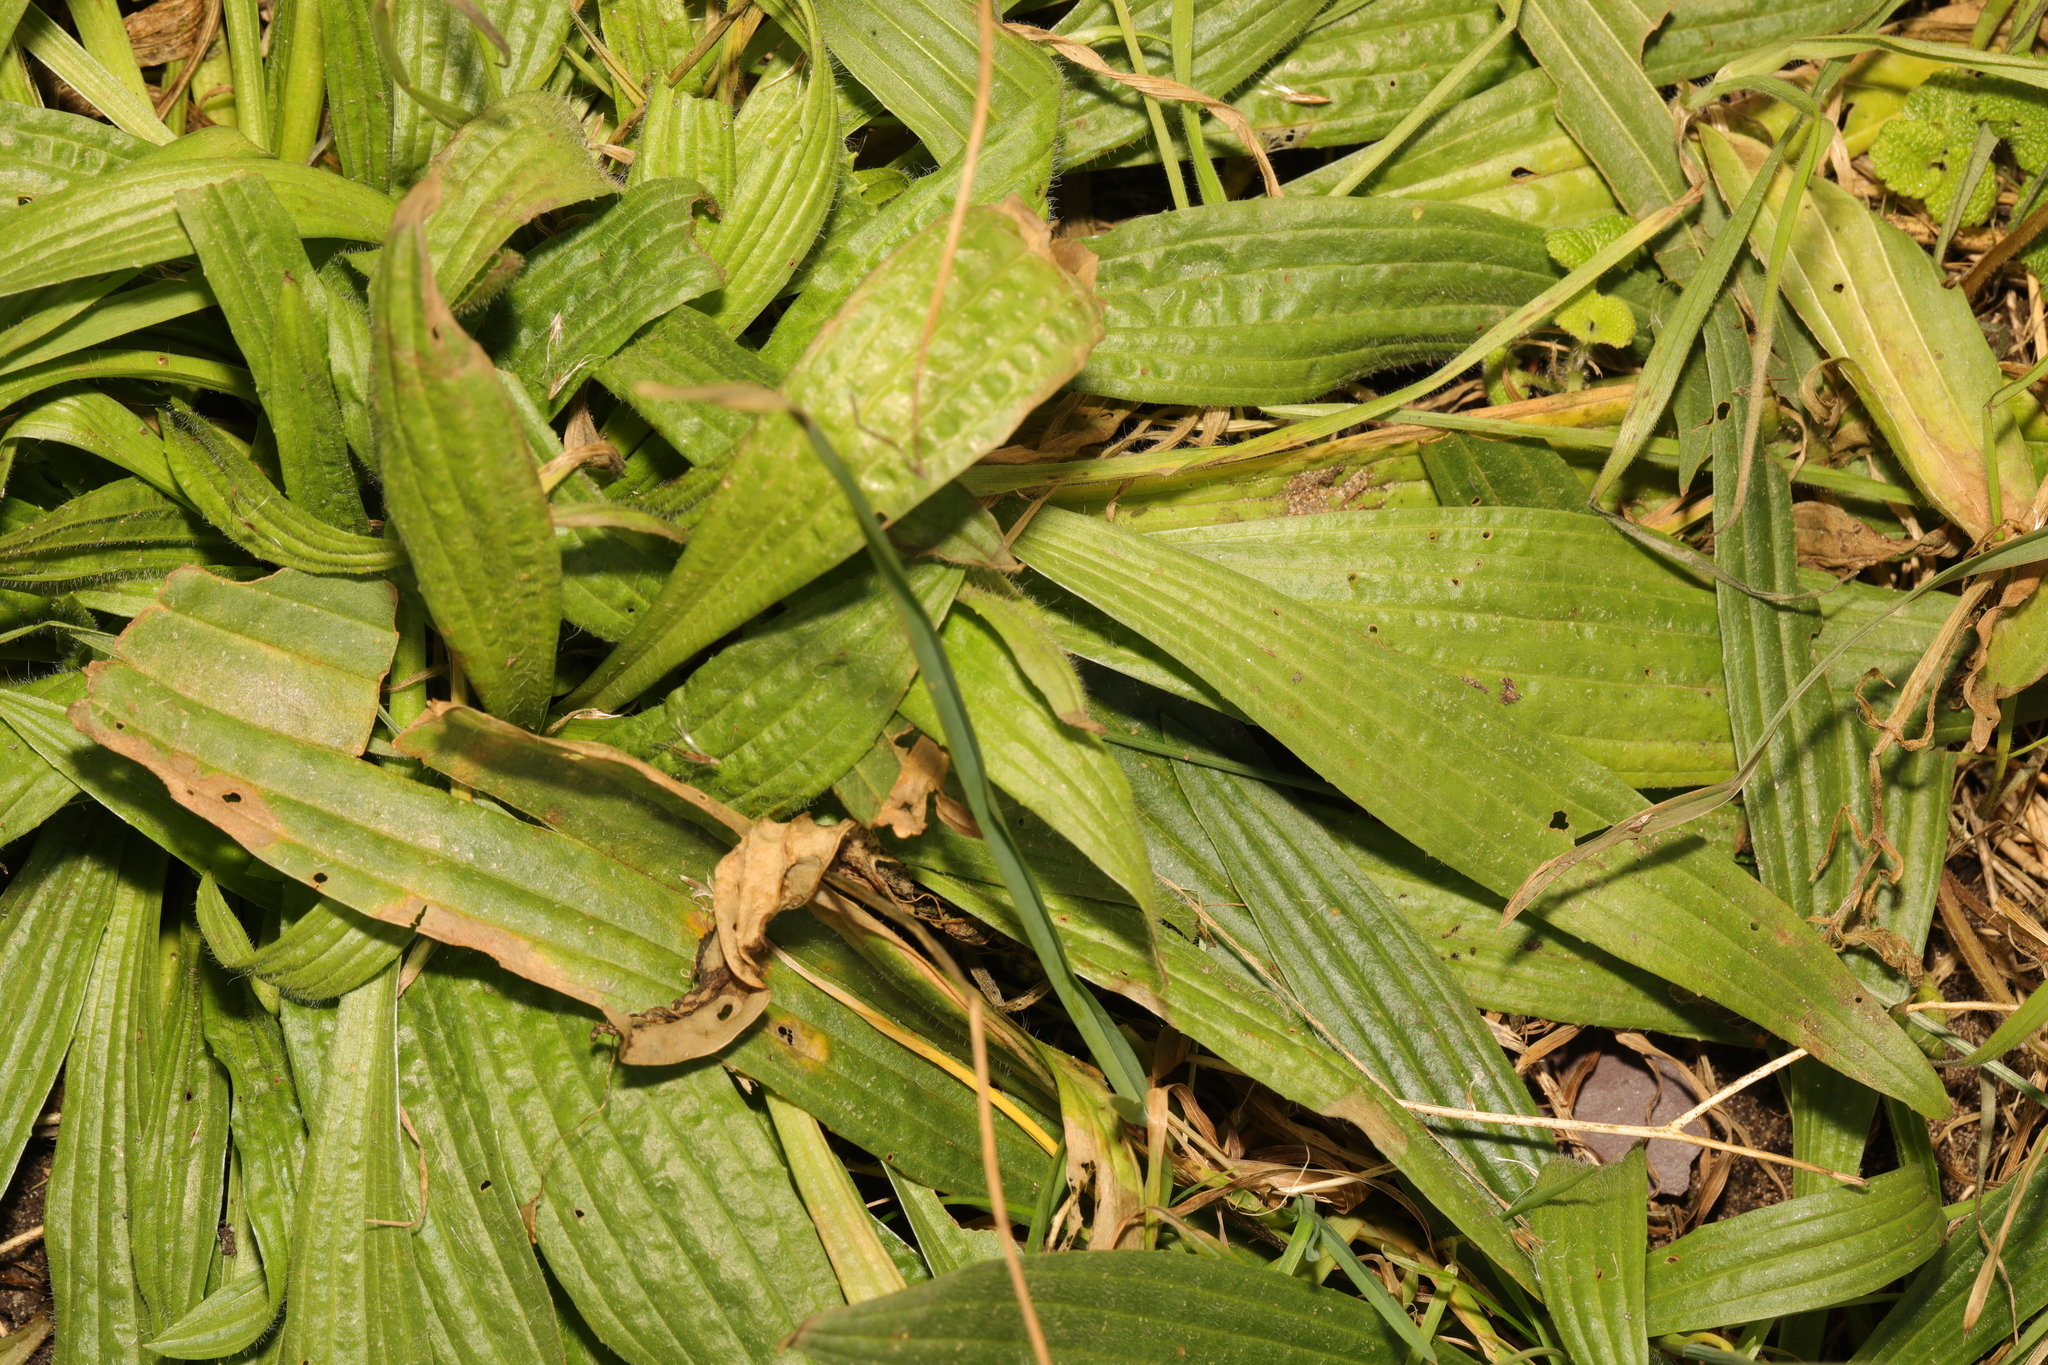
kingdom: Plantae
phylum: Tracheophyta
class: Magnoliopsida
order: Lamiales
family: Plantaginaceae
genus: Plantago
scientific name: Plantago lanceolata
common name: Ribwort plantain
